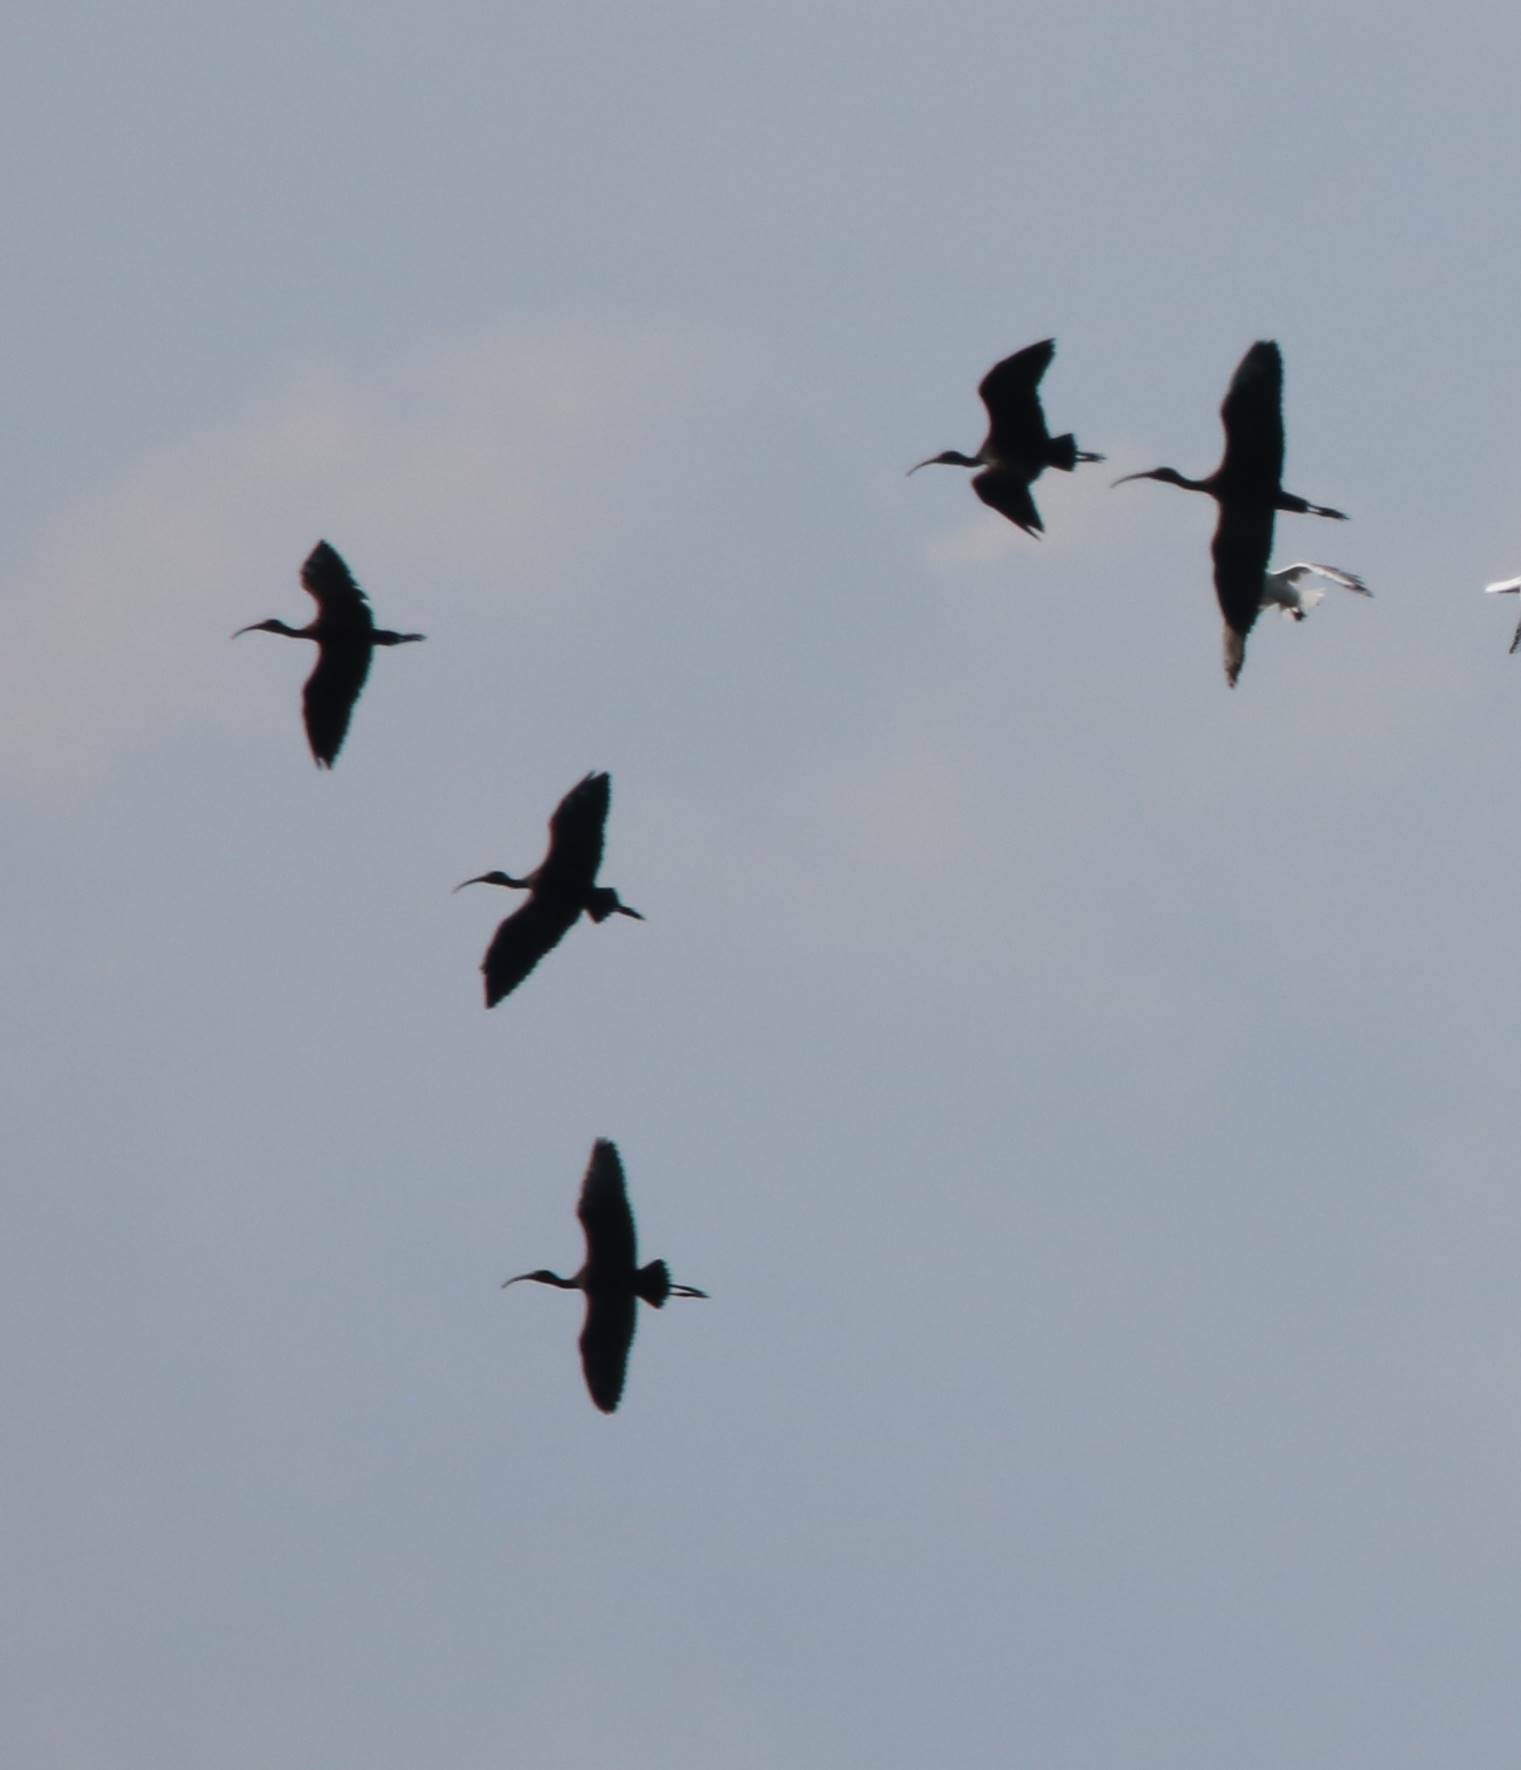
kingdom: Animalia
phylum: Chordata
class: Aves
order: Pelecaniformes
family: Threskiornithidae
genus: Plegadis
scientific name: Plegadis falcinellus
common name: Glossy ibis
